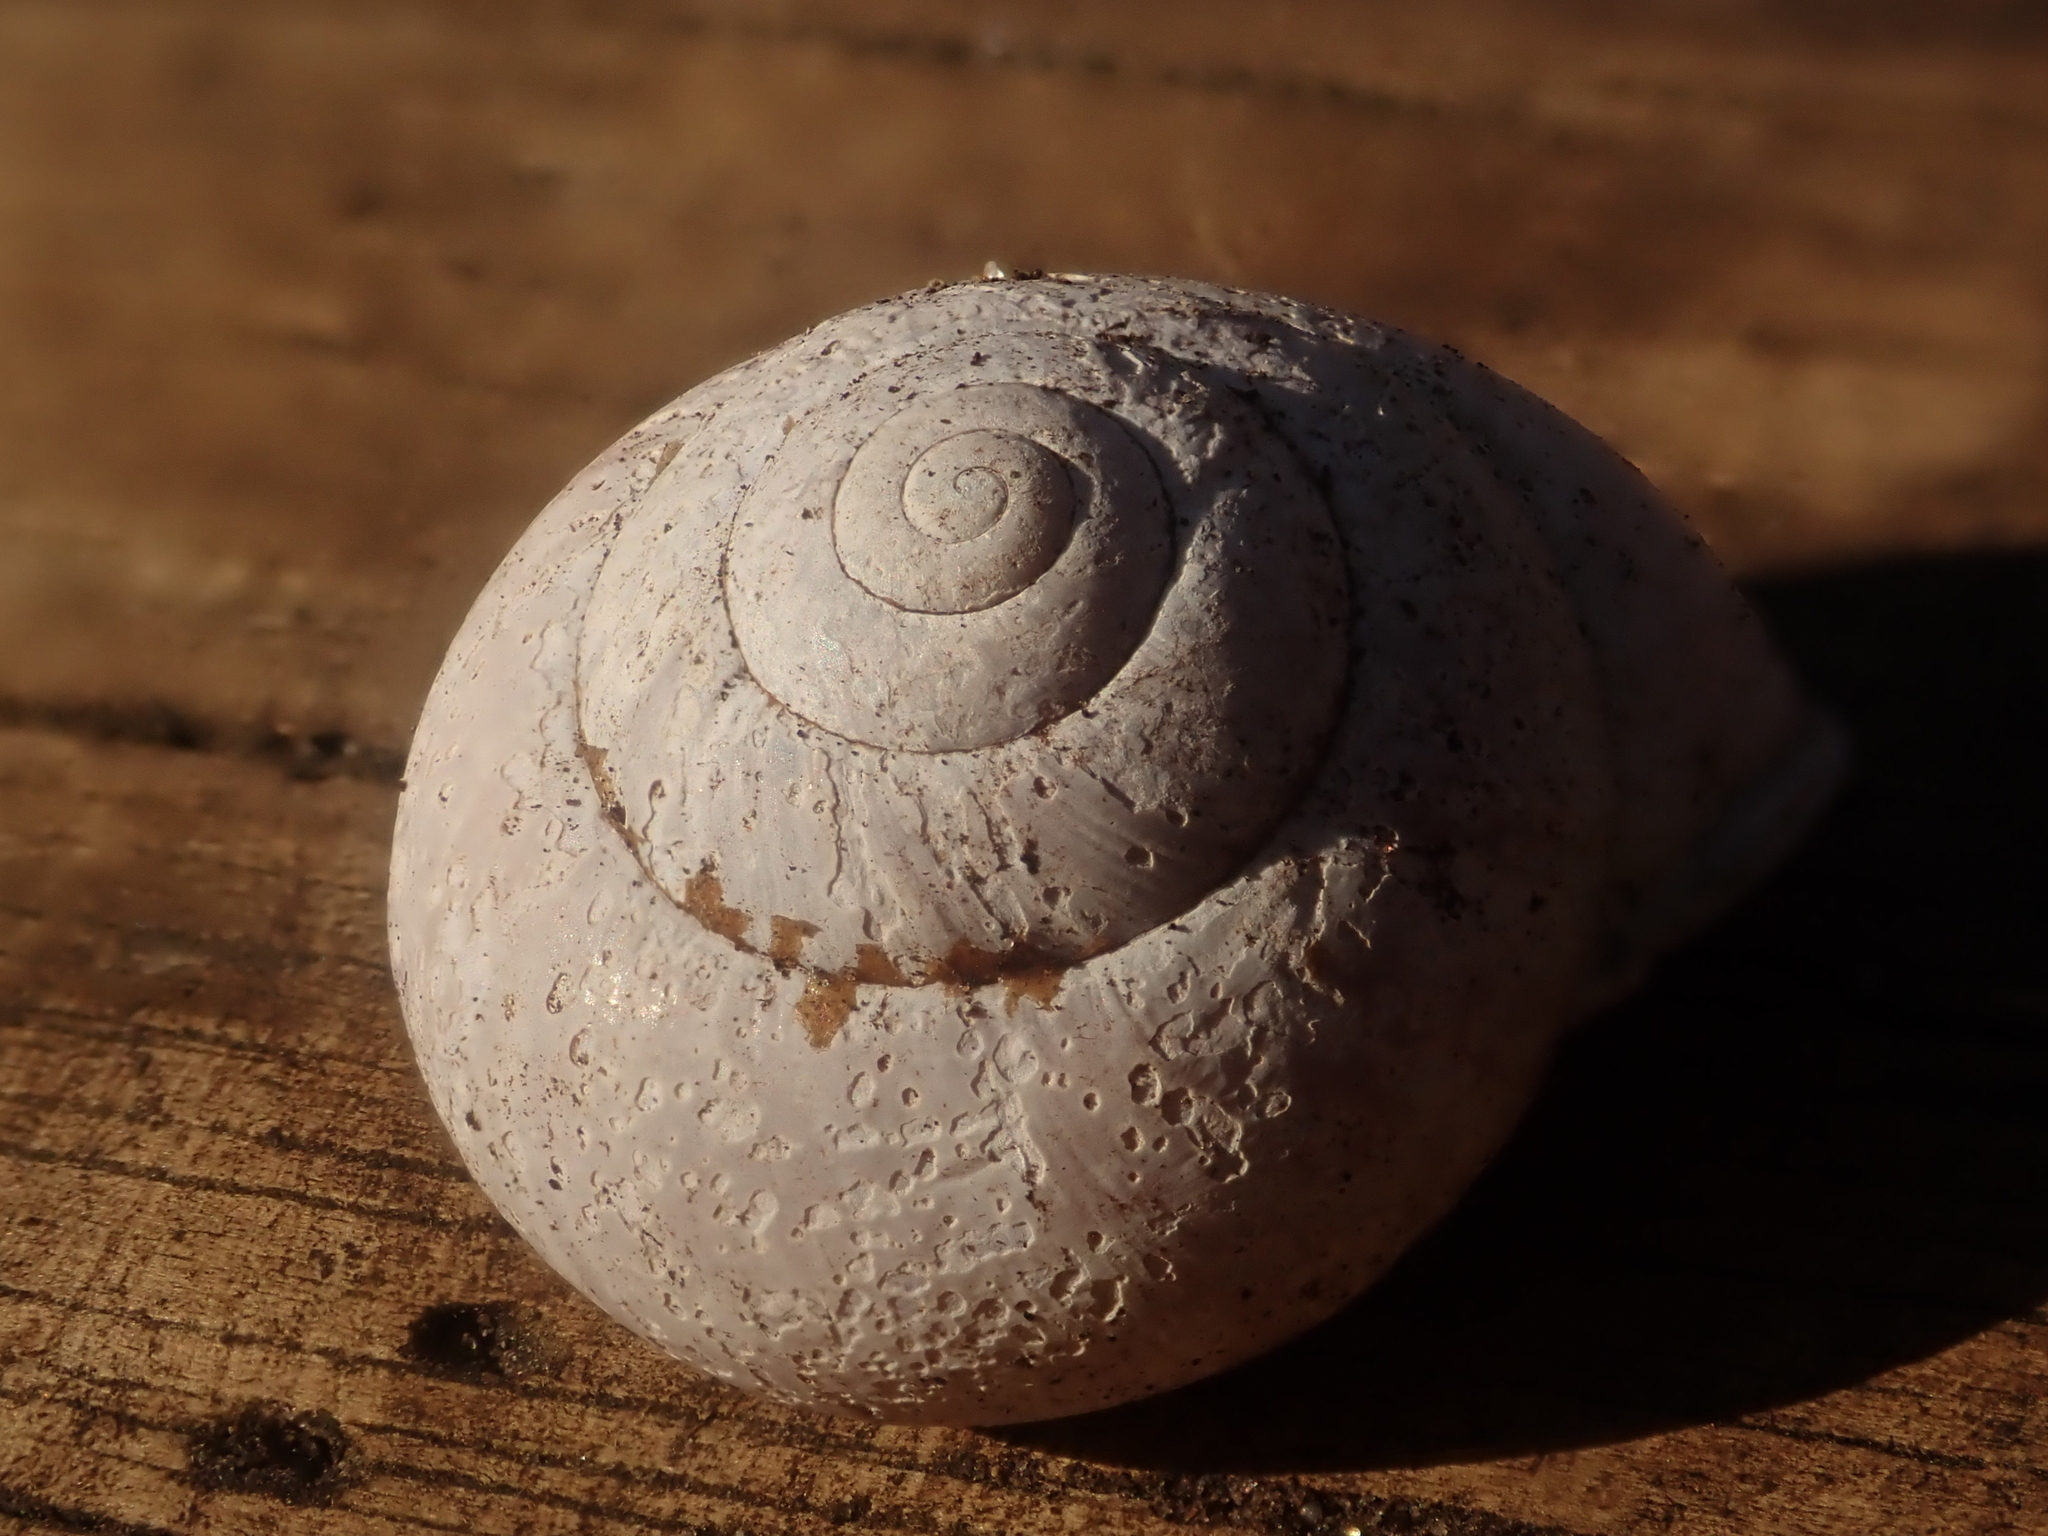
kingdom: Animalia
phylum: Mollusca
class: Gastropoda
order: Stylommatophora
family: Helicidae
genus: Cepaea
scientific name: Cepaea nemoralis
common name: Grovesnail
